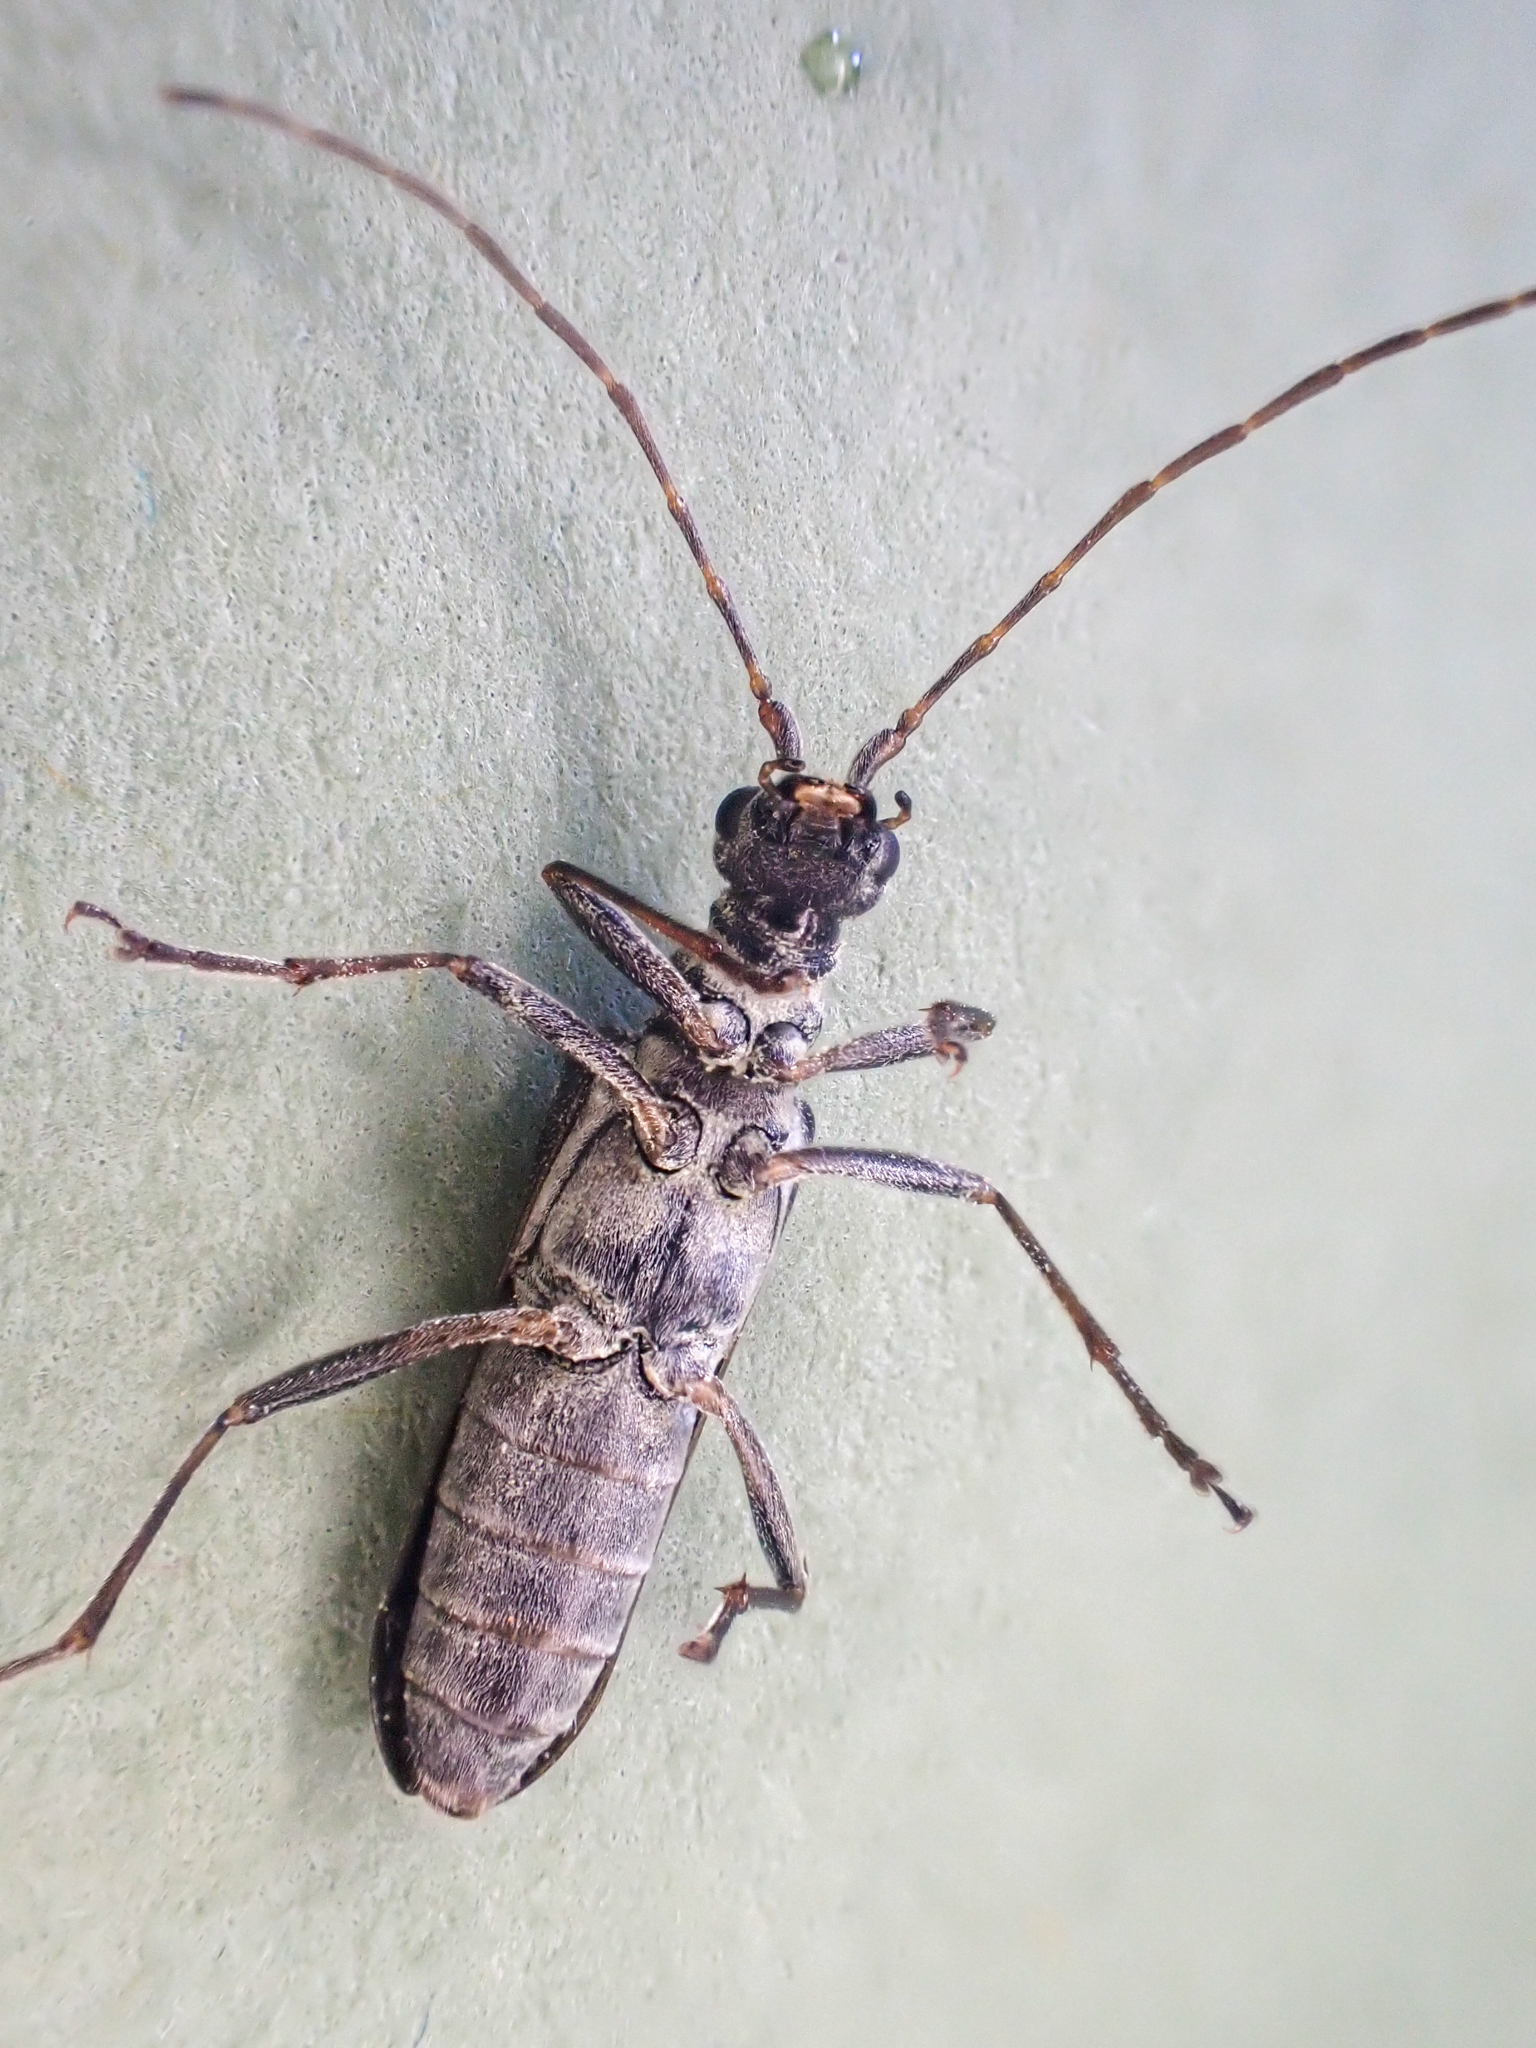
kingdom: Animalia
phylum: Arthropoda
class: Insecta
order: Coleoptera
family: Cerambycidae
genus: Leptalia
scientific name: Leptalia macilenta
